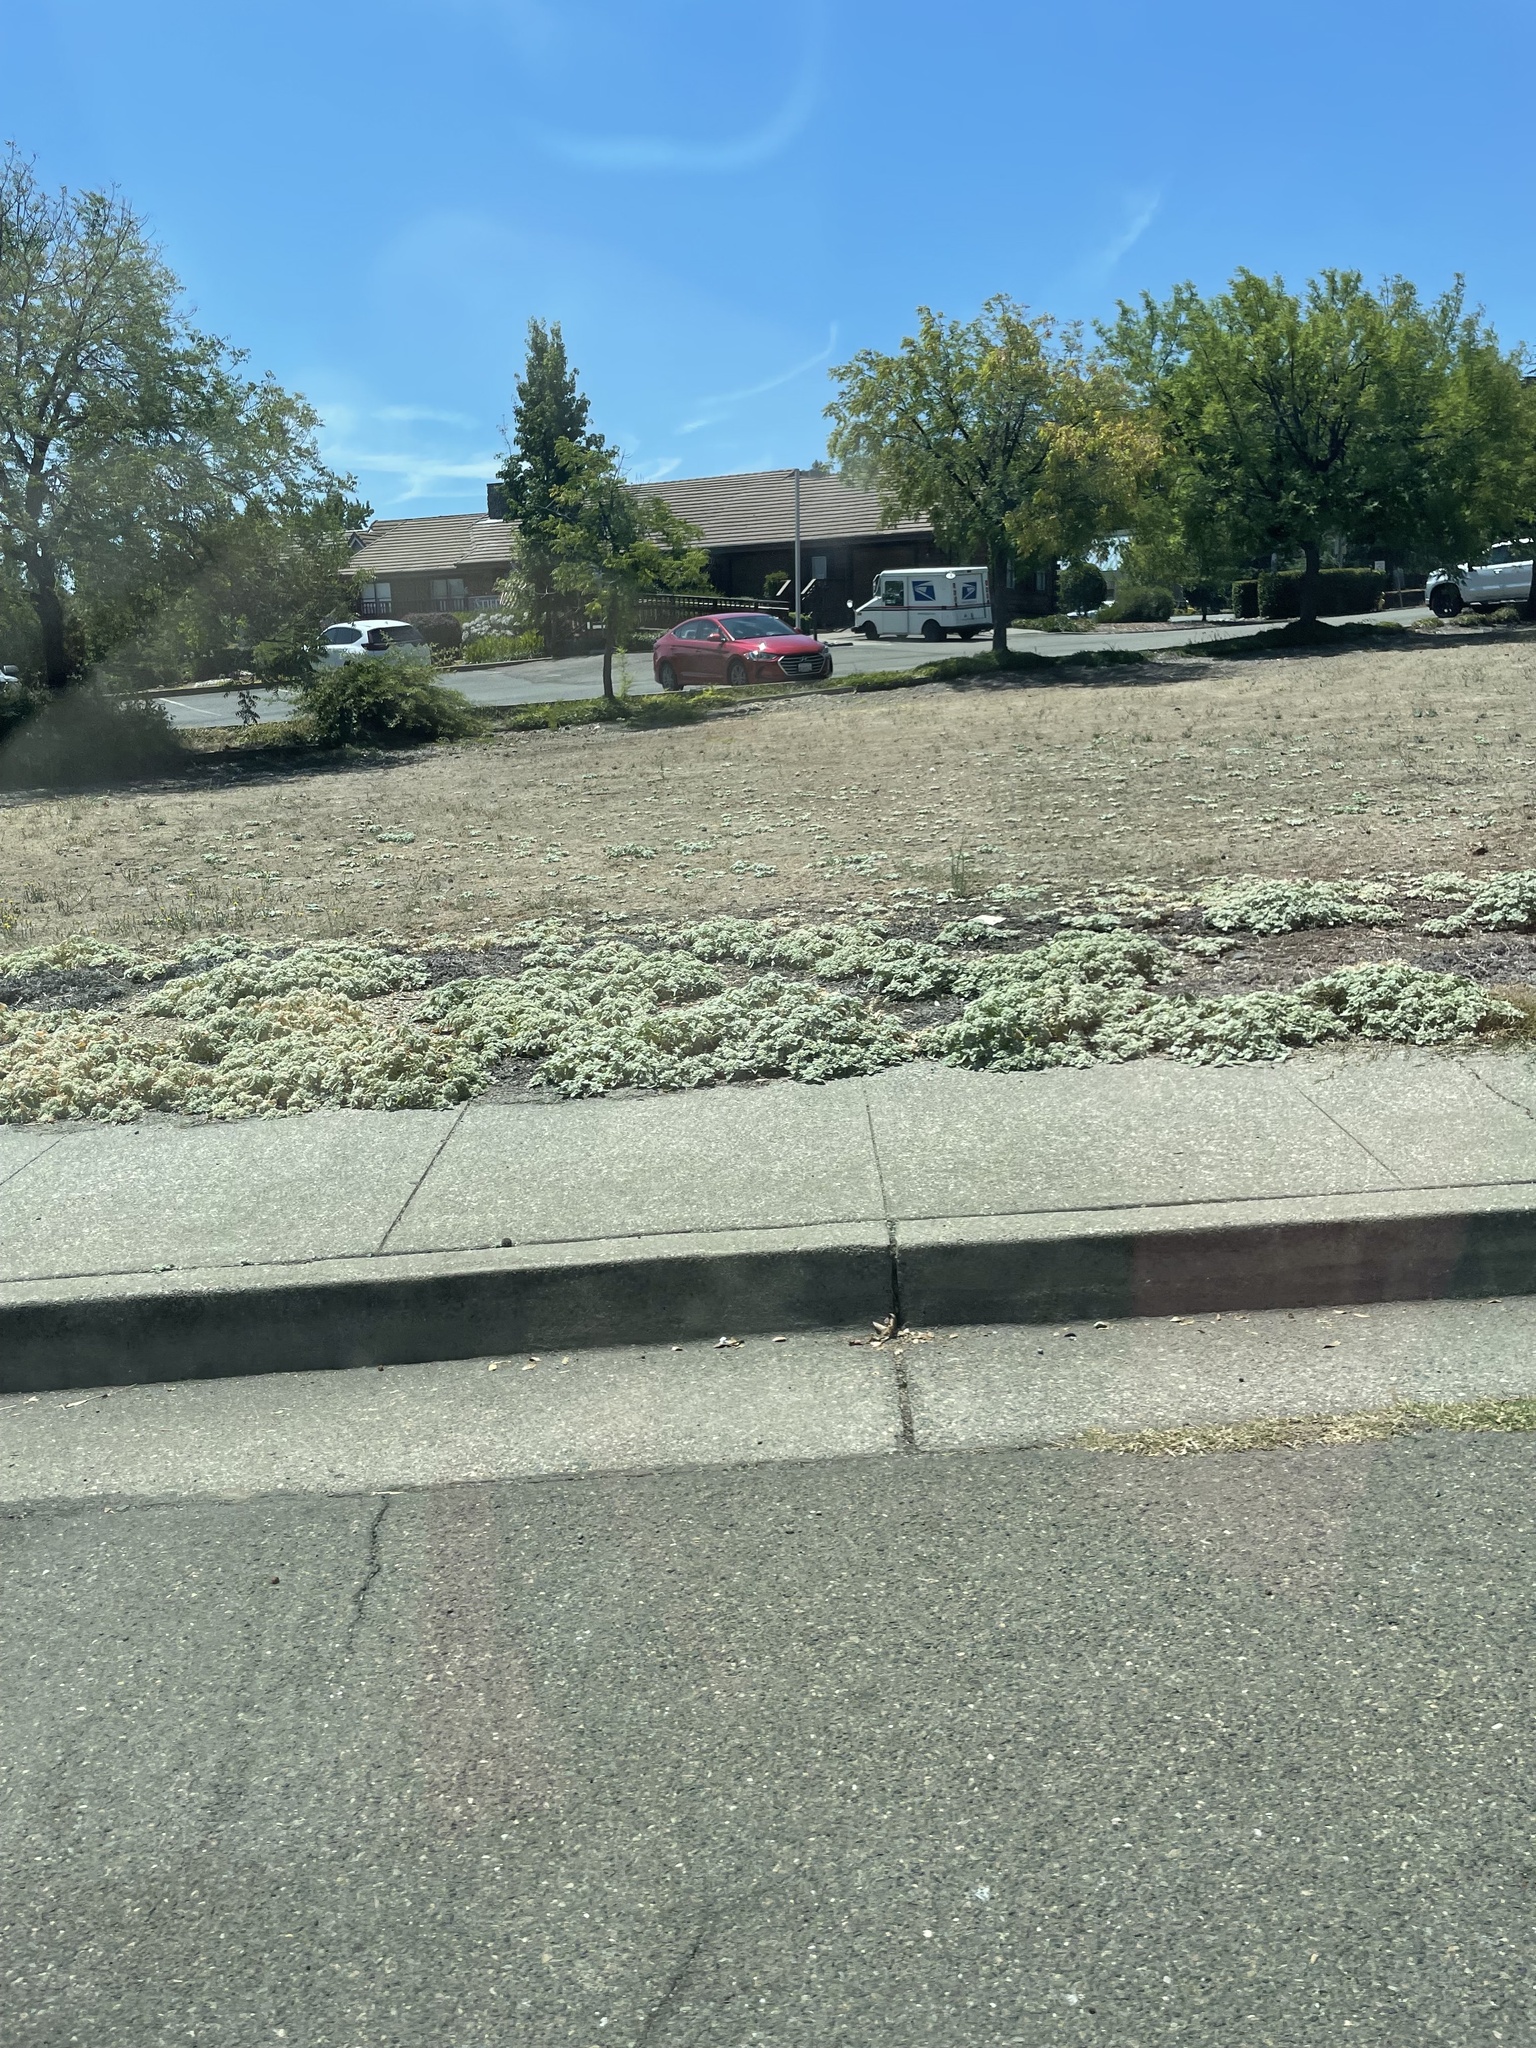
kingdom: Plantae
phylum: Tracheophyta
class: Magnoliopsida
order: Malpighiales
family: Euphorbiaceae
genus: Croton
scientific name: Croton setiger
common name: Dove weed
